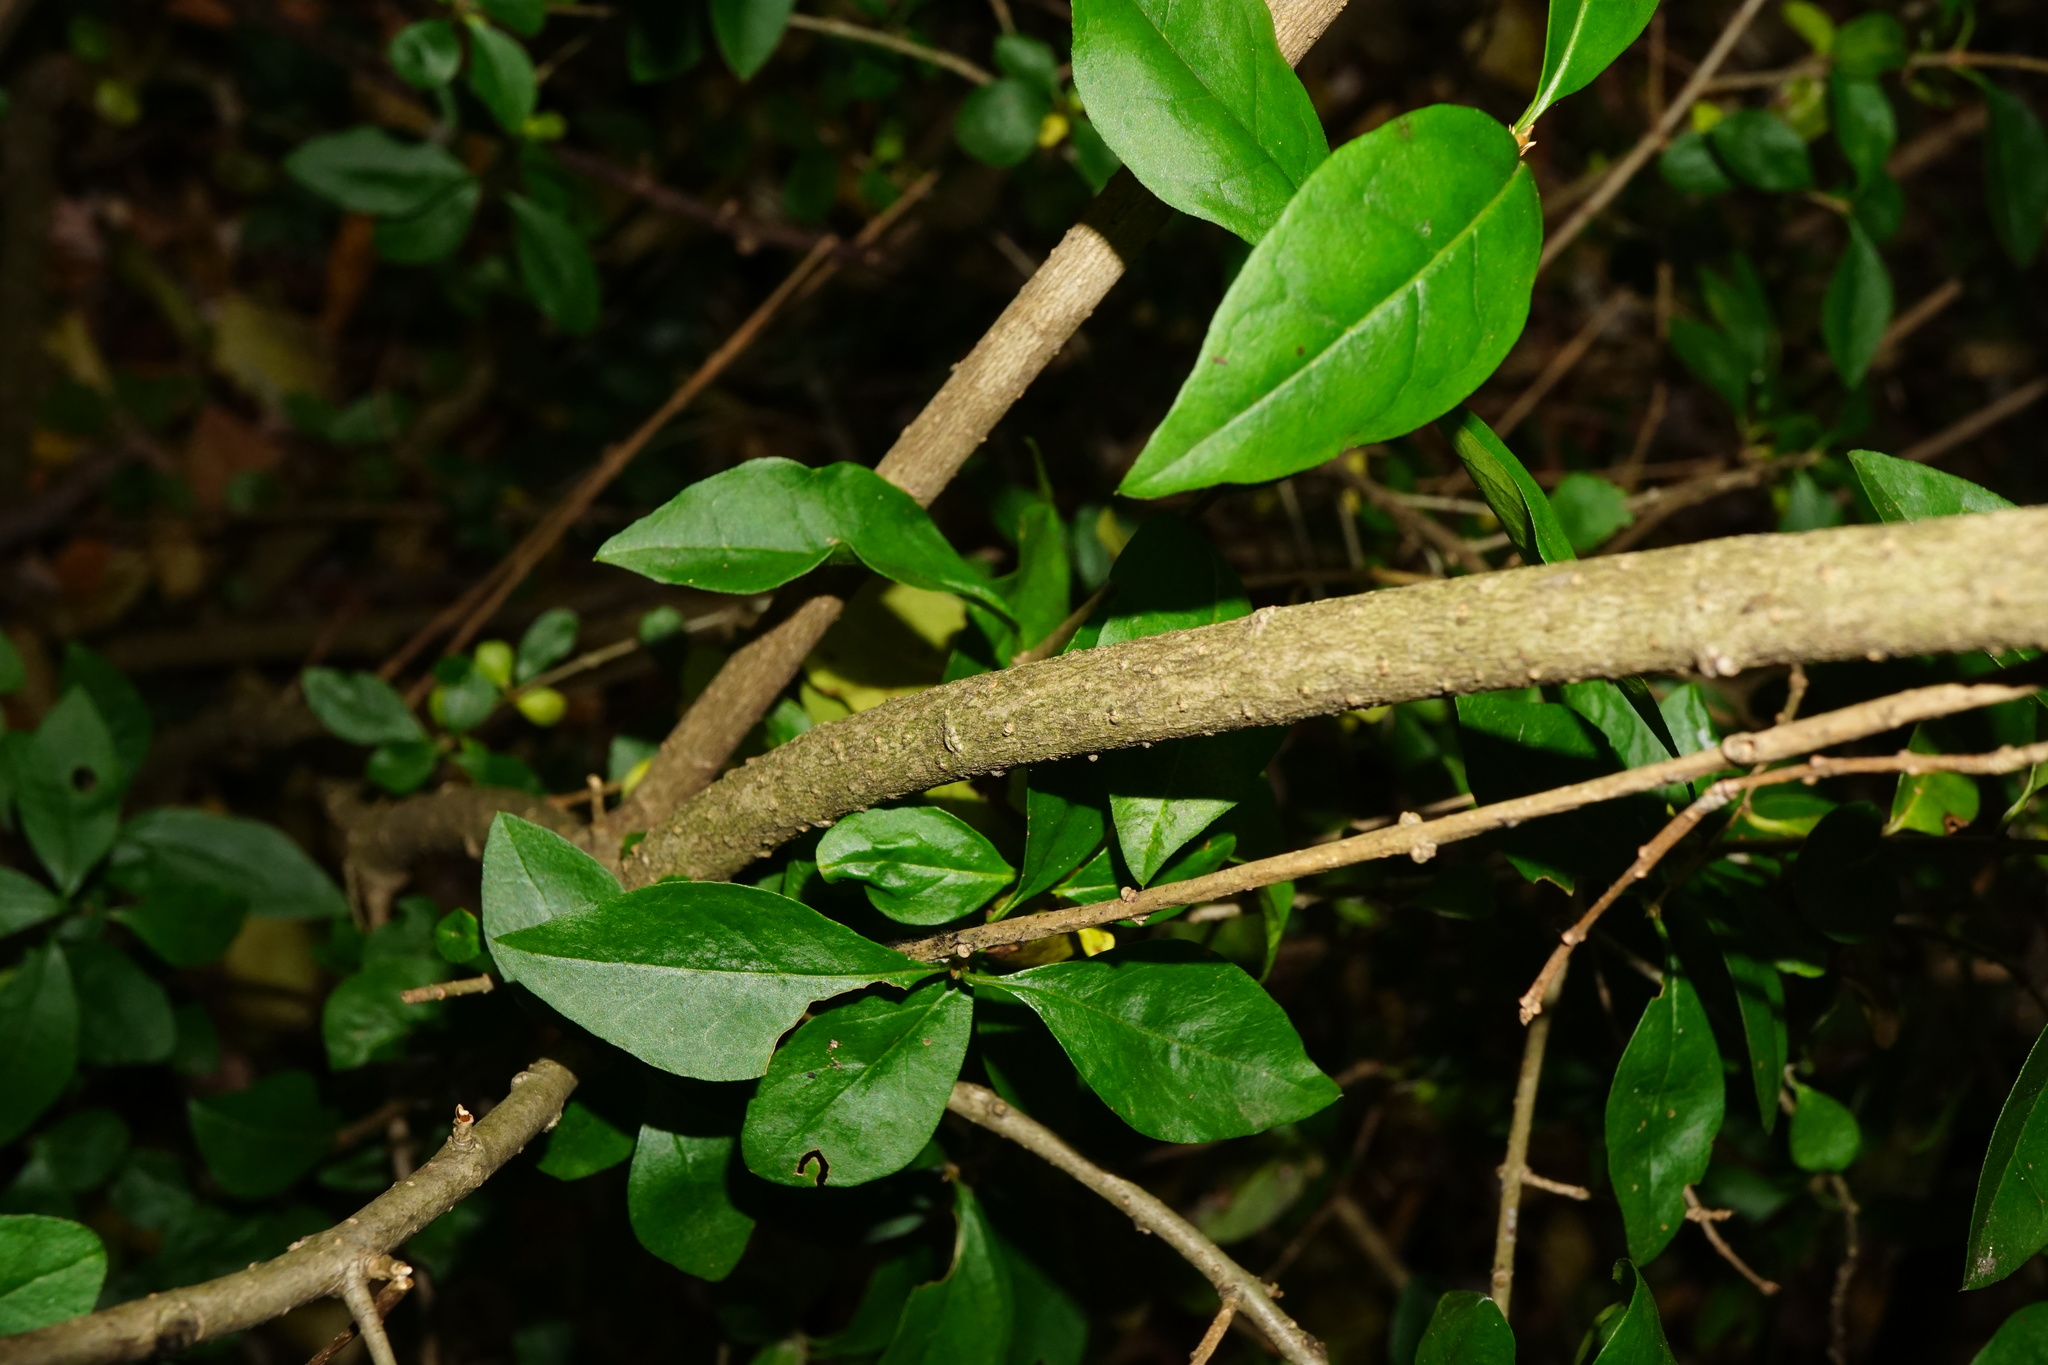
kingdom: Plantae
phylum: Tracheophyta
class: Magnoliopsida
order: Lamiales
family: Oleaceae
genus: Ligustrum
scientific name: Ligustrum ovalifolium
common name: California privet
